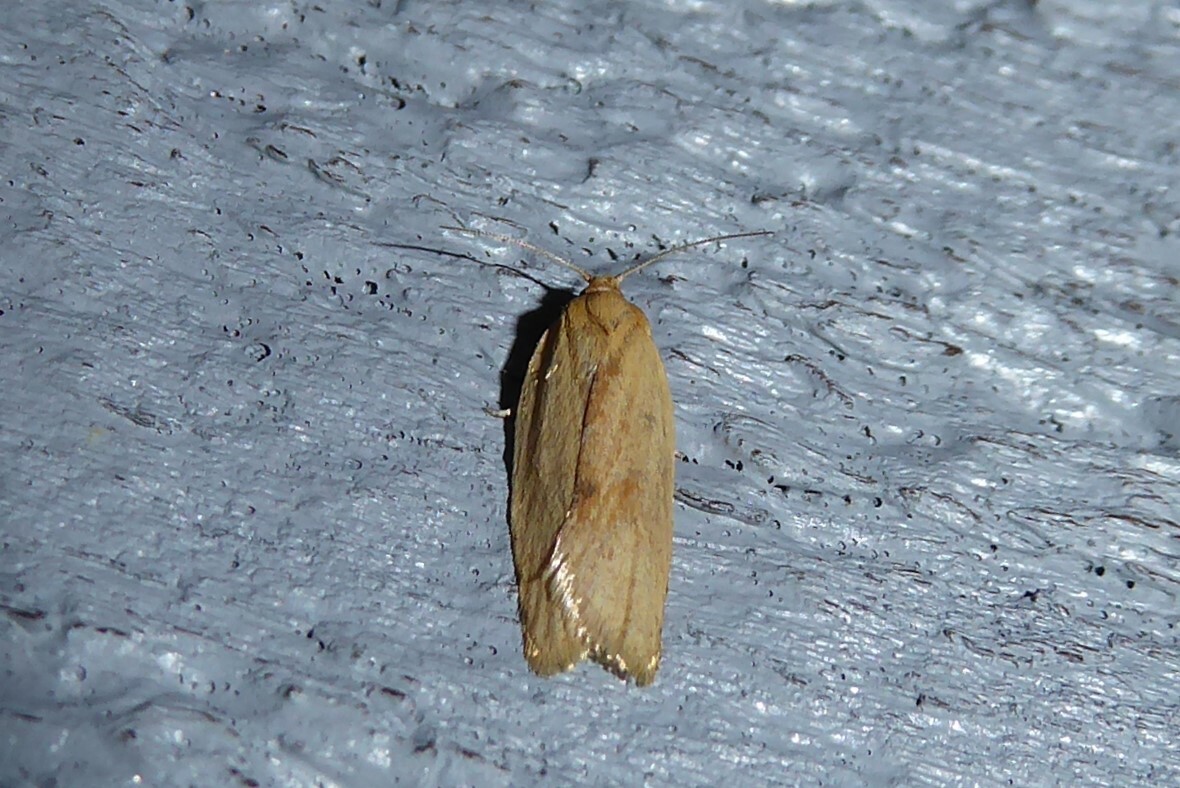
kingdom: Animalia
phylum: Arthropoda
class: Insecta
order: Lepidoptera
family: Tortricidae
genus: Clepsis
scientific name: Clepsis
